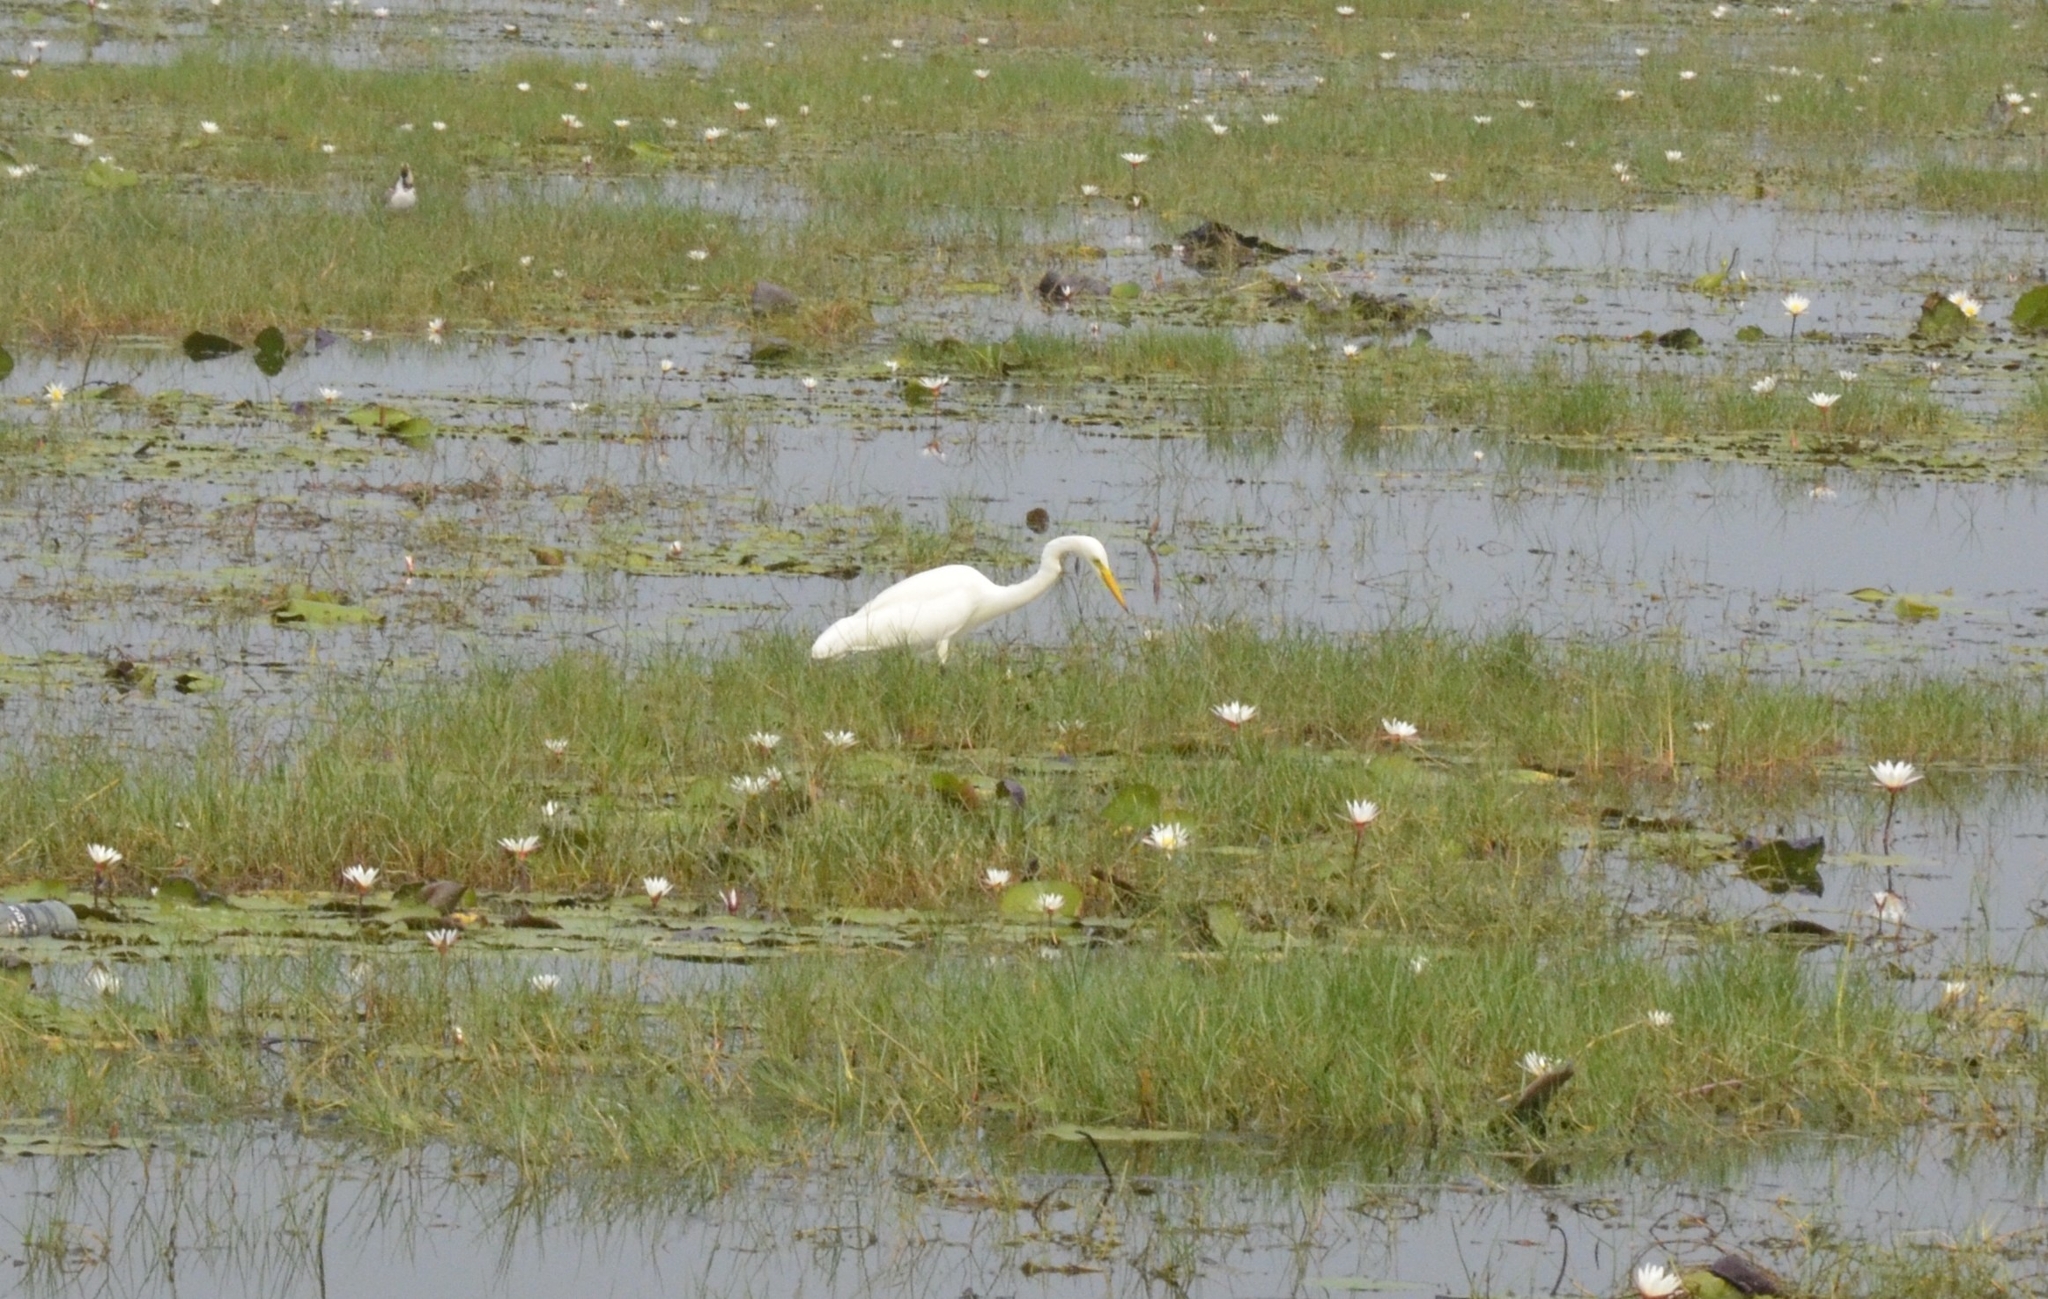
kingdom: Animalia
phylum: Chordata
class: Aves
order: Pelecaniformes
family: Ardeidae
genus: Egretta
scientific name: Egretta intermedia
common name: Intermediate egret
